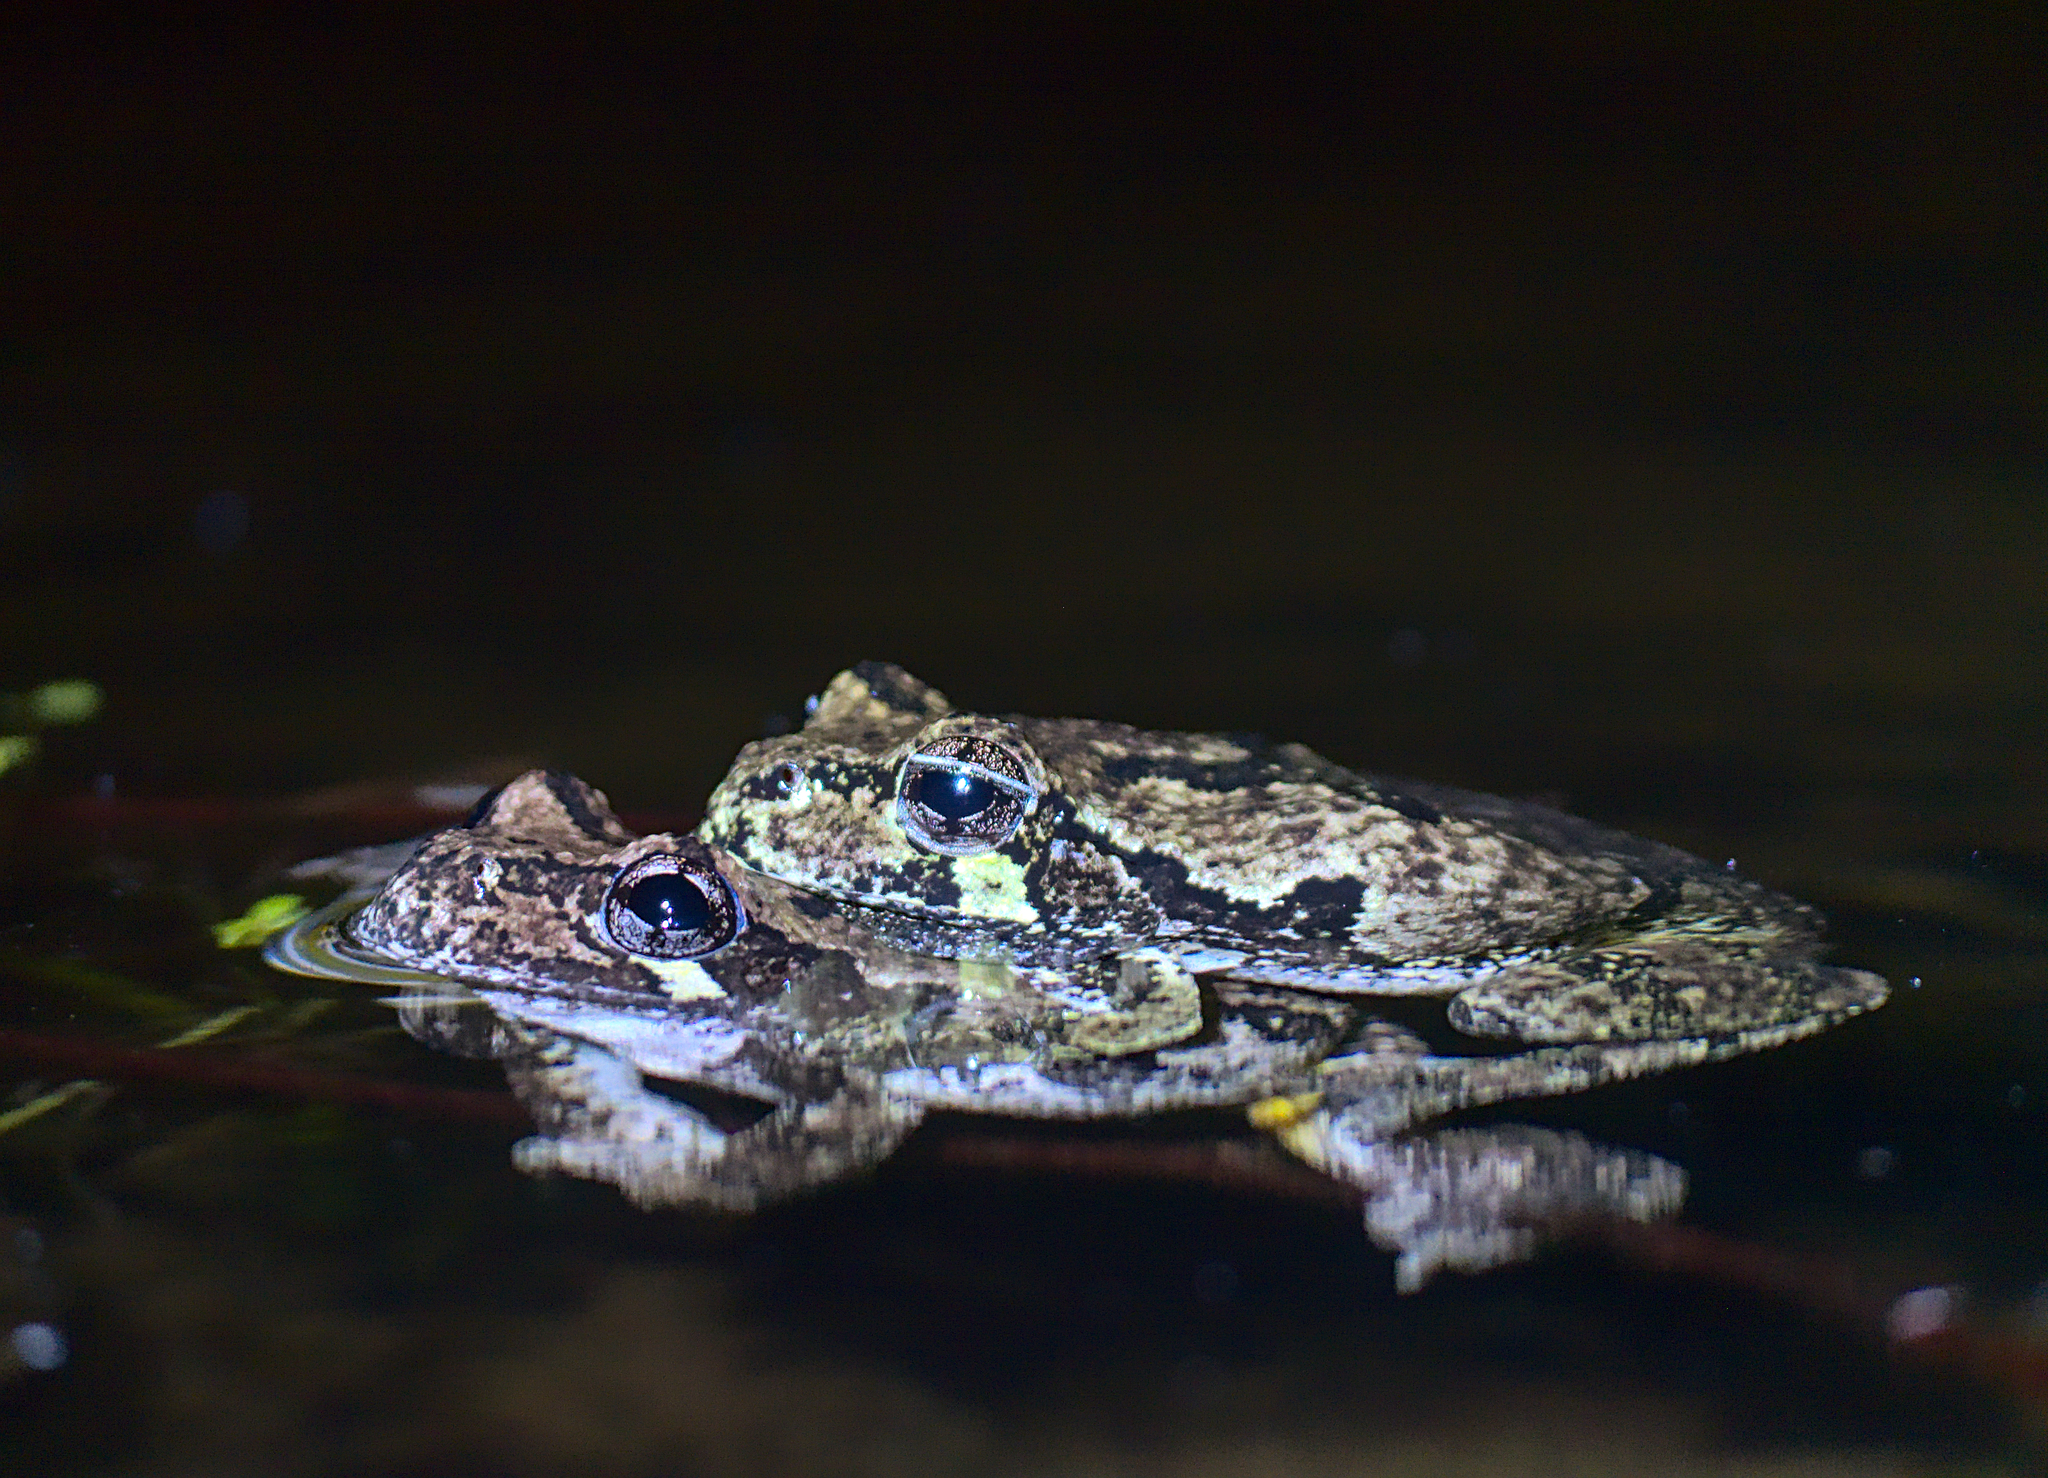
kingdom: Animalia
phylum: Chordata
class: Amphibia
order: Anura
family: Hylidae
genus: Dryophytes
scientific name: Dryophytes versicolor
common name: Gray treefrog
